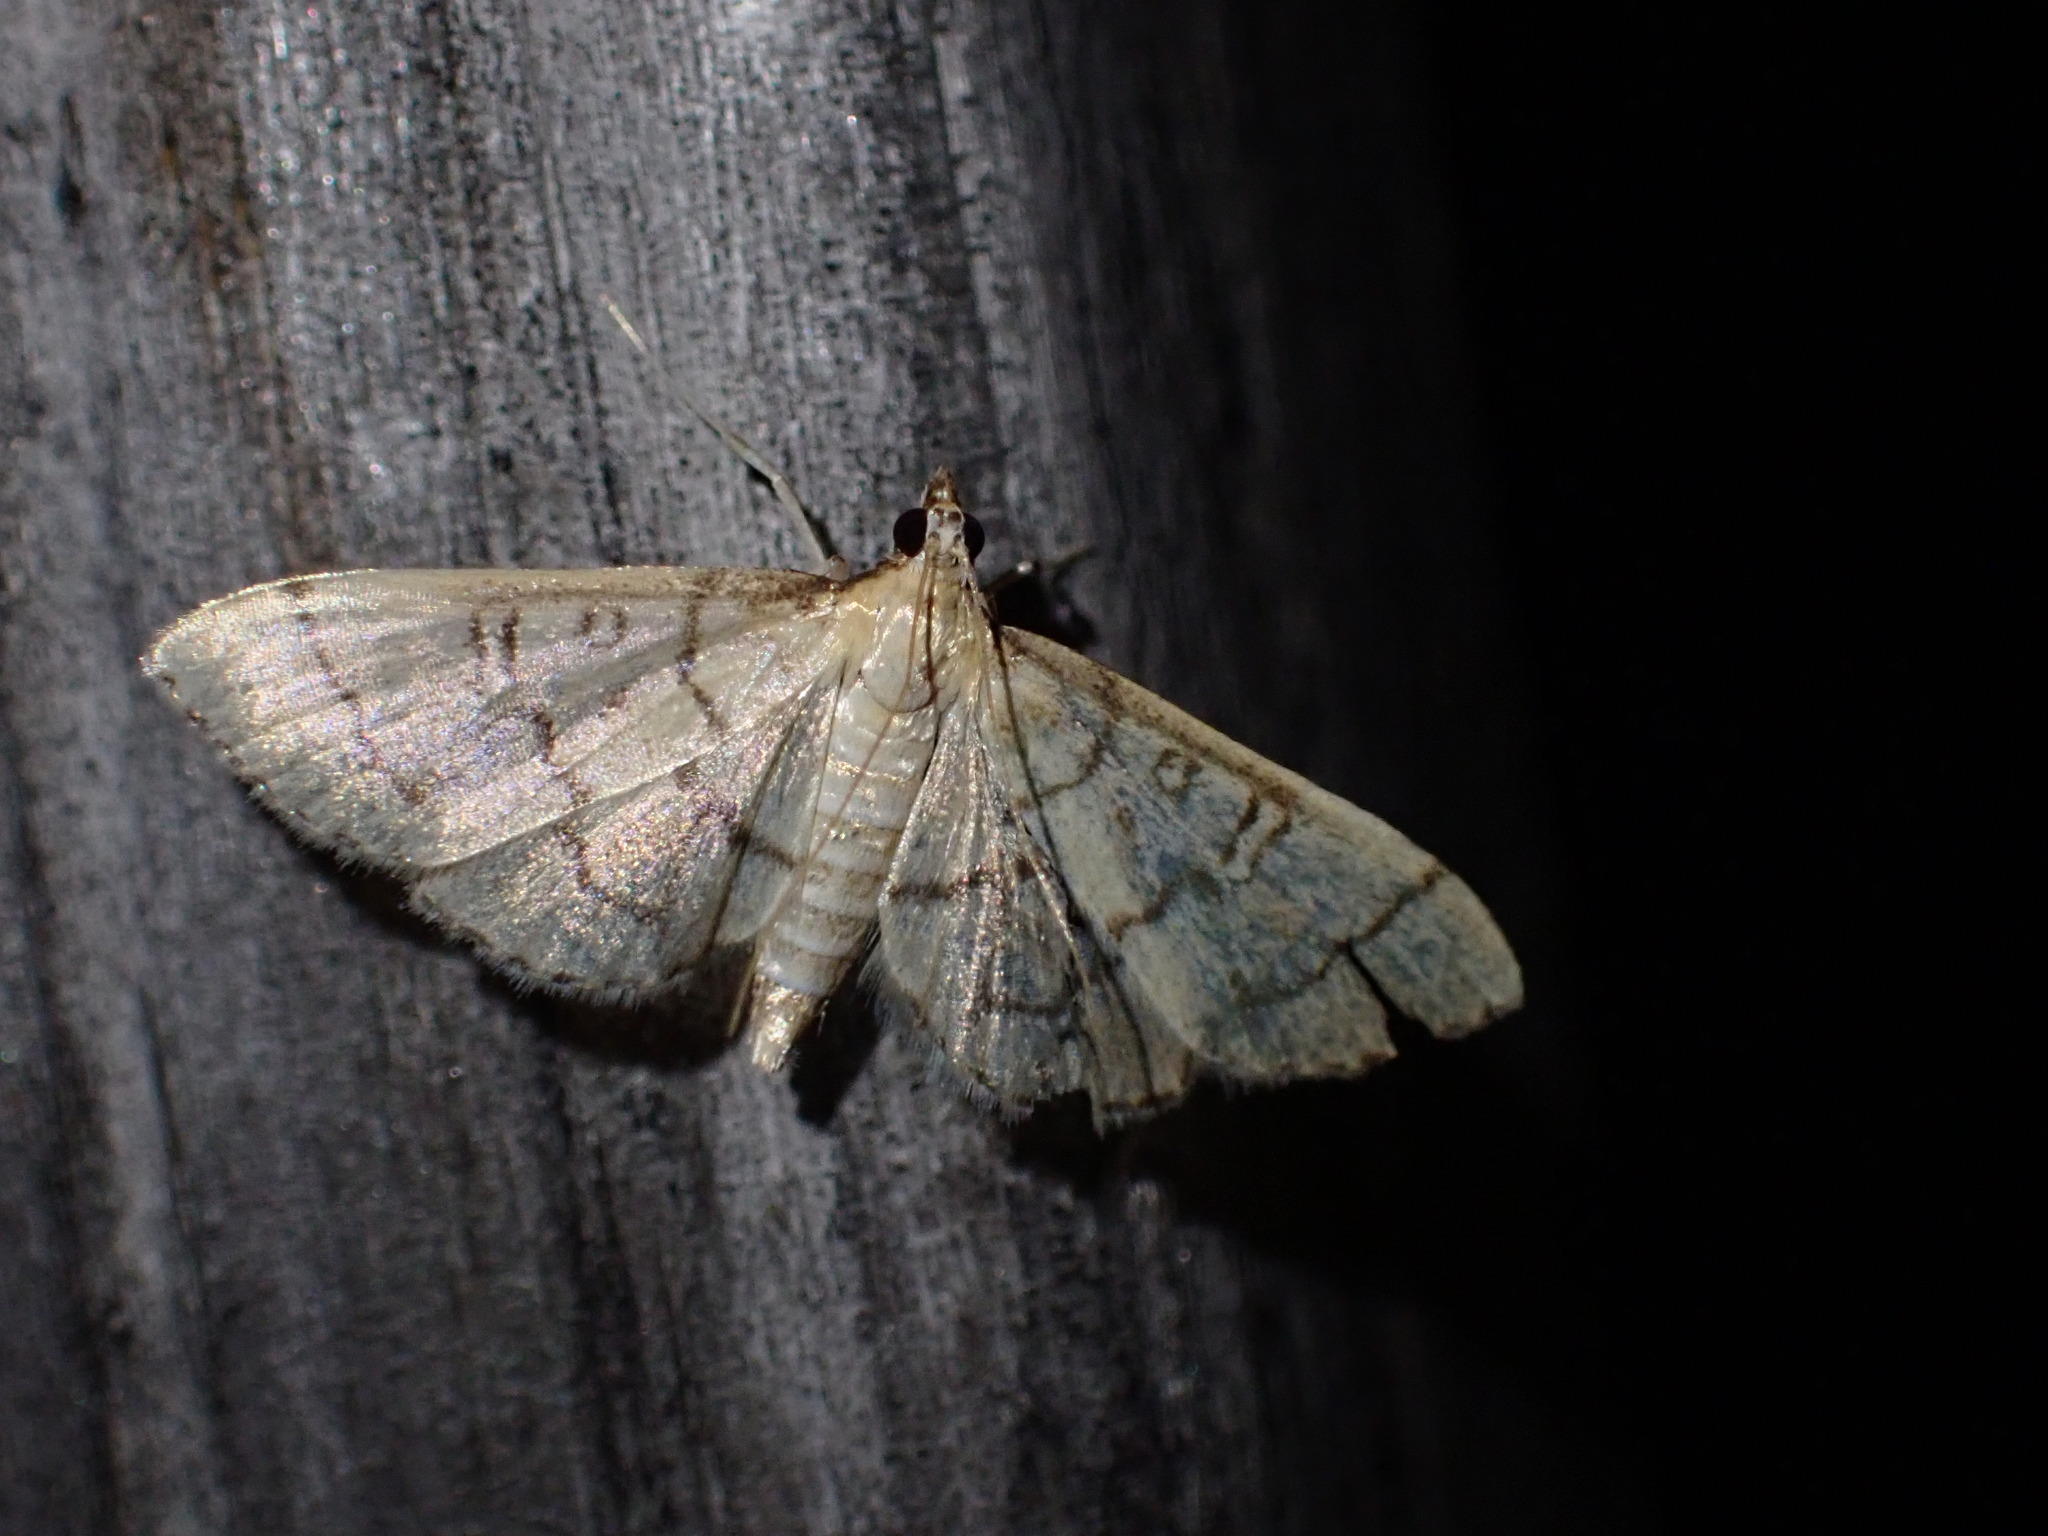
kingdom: Animalia
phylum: Arthropoda
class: Insecta
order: Lepidoptera
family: Crambidae
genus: Lamprosema
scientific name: Lamprosema Blepharomastix ranalis
